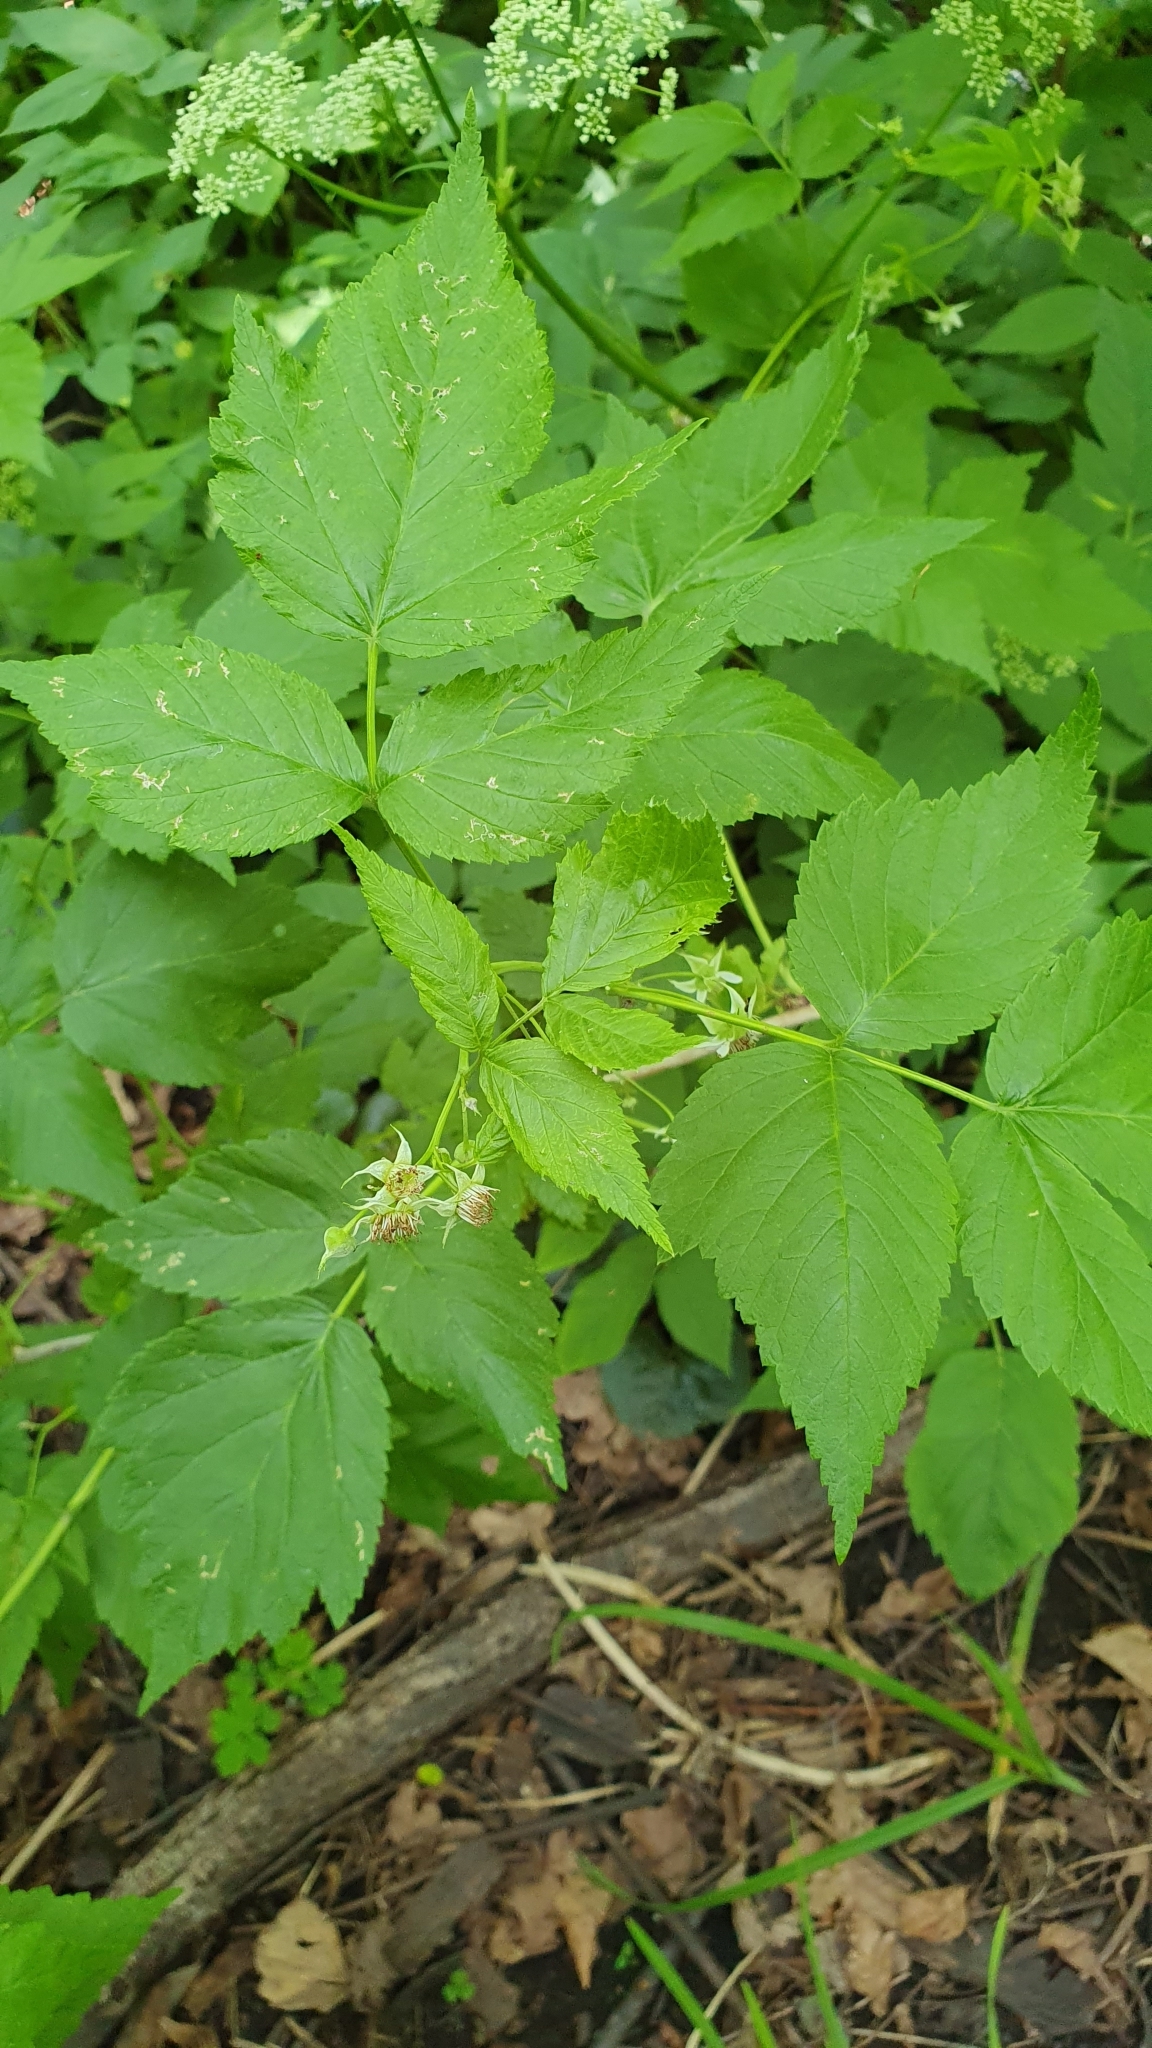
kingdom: Plantae
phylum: Tracheophyta
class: Magnoliopsida
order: Rosales
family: Rosaceae
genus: Rubus
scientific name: Rubus idaeus
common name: Raspberry
